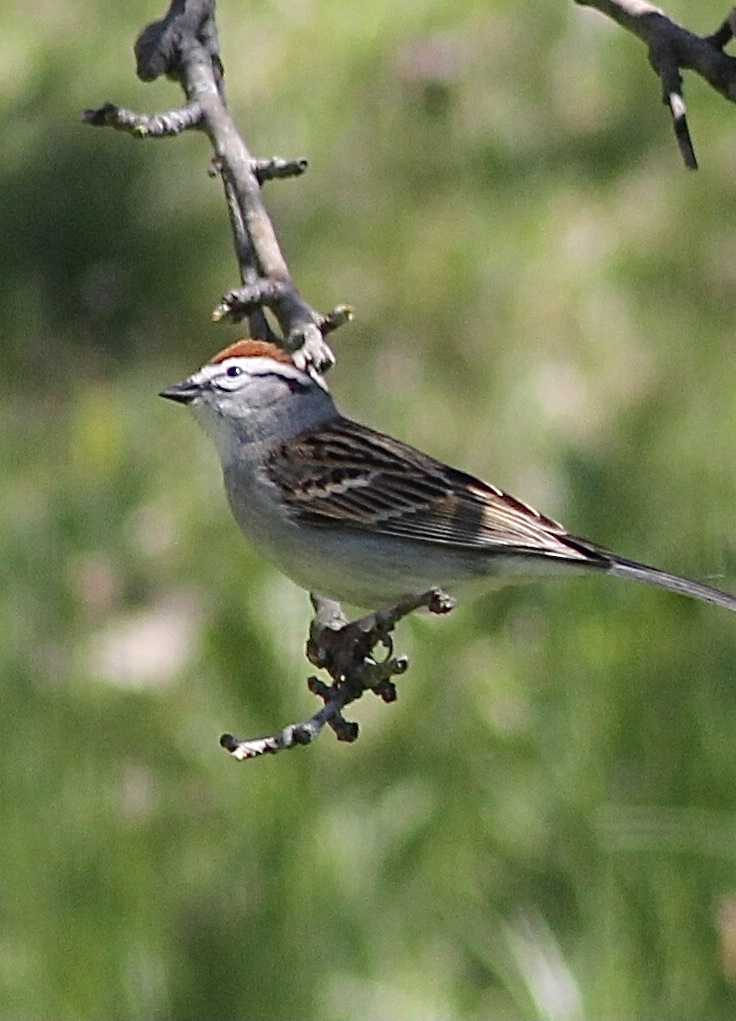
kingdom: Animalia
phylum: Chordata
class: Aves
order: Passeriformes
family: Passerellidae
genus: Spizella
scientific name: Spizella passerina
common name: Chipping sparrow
